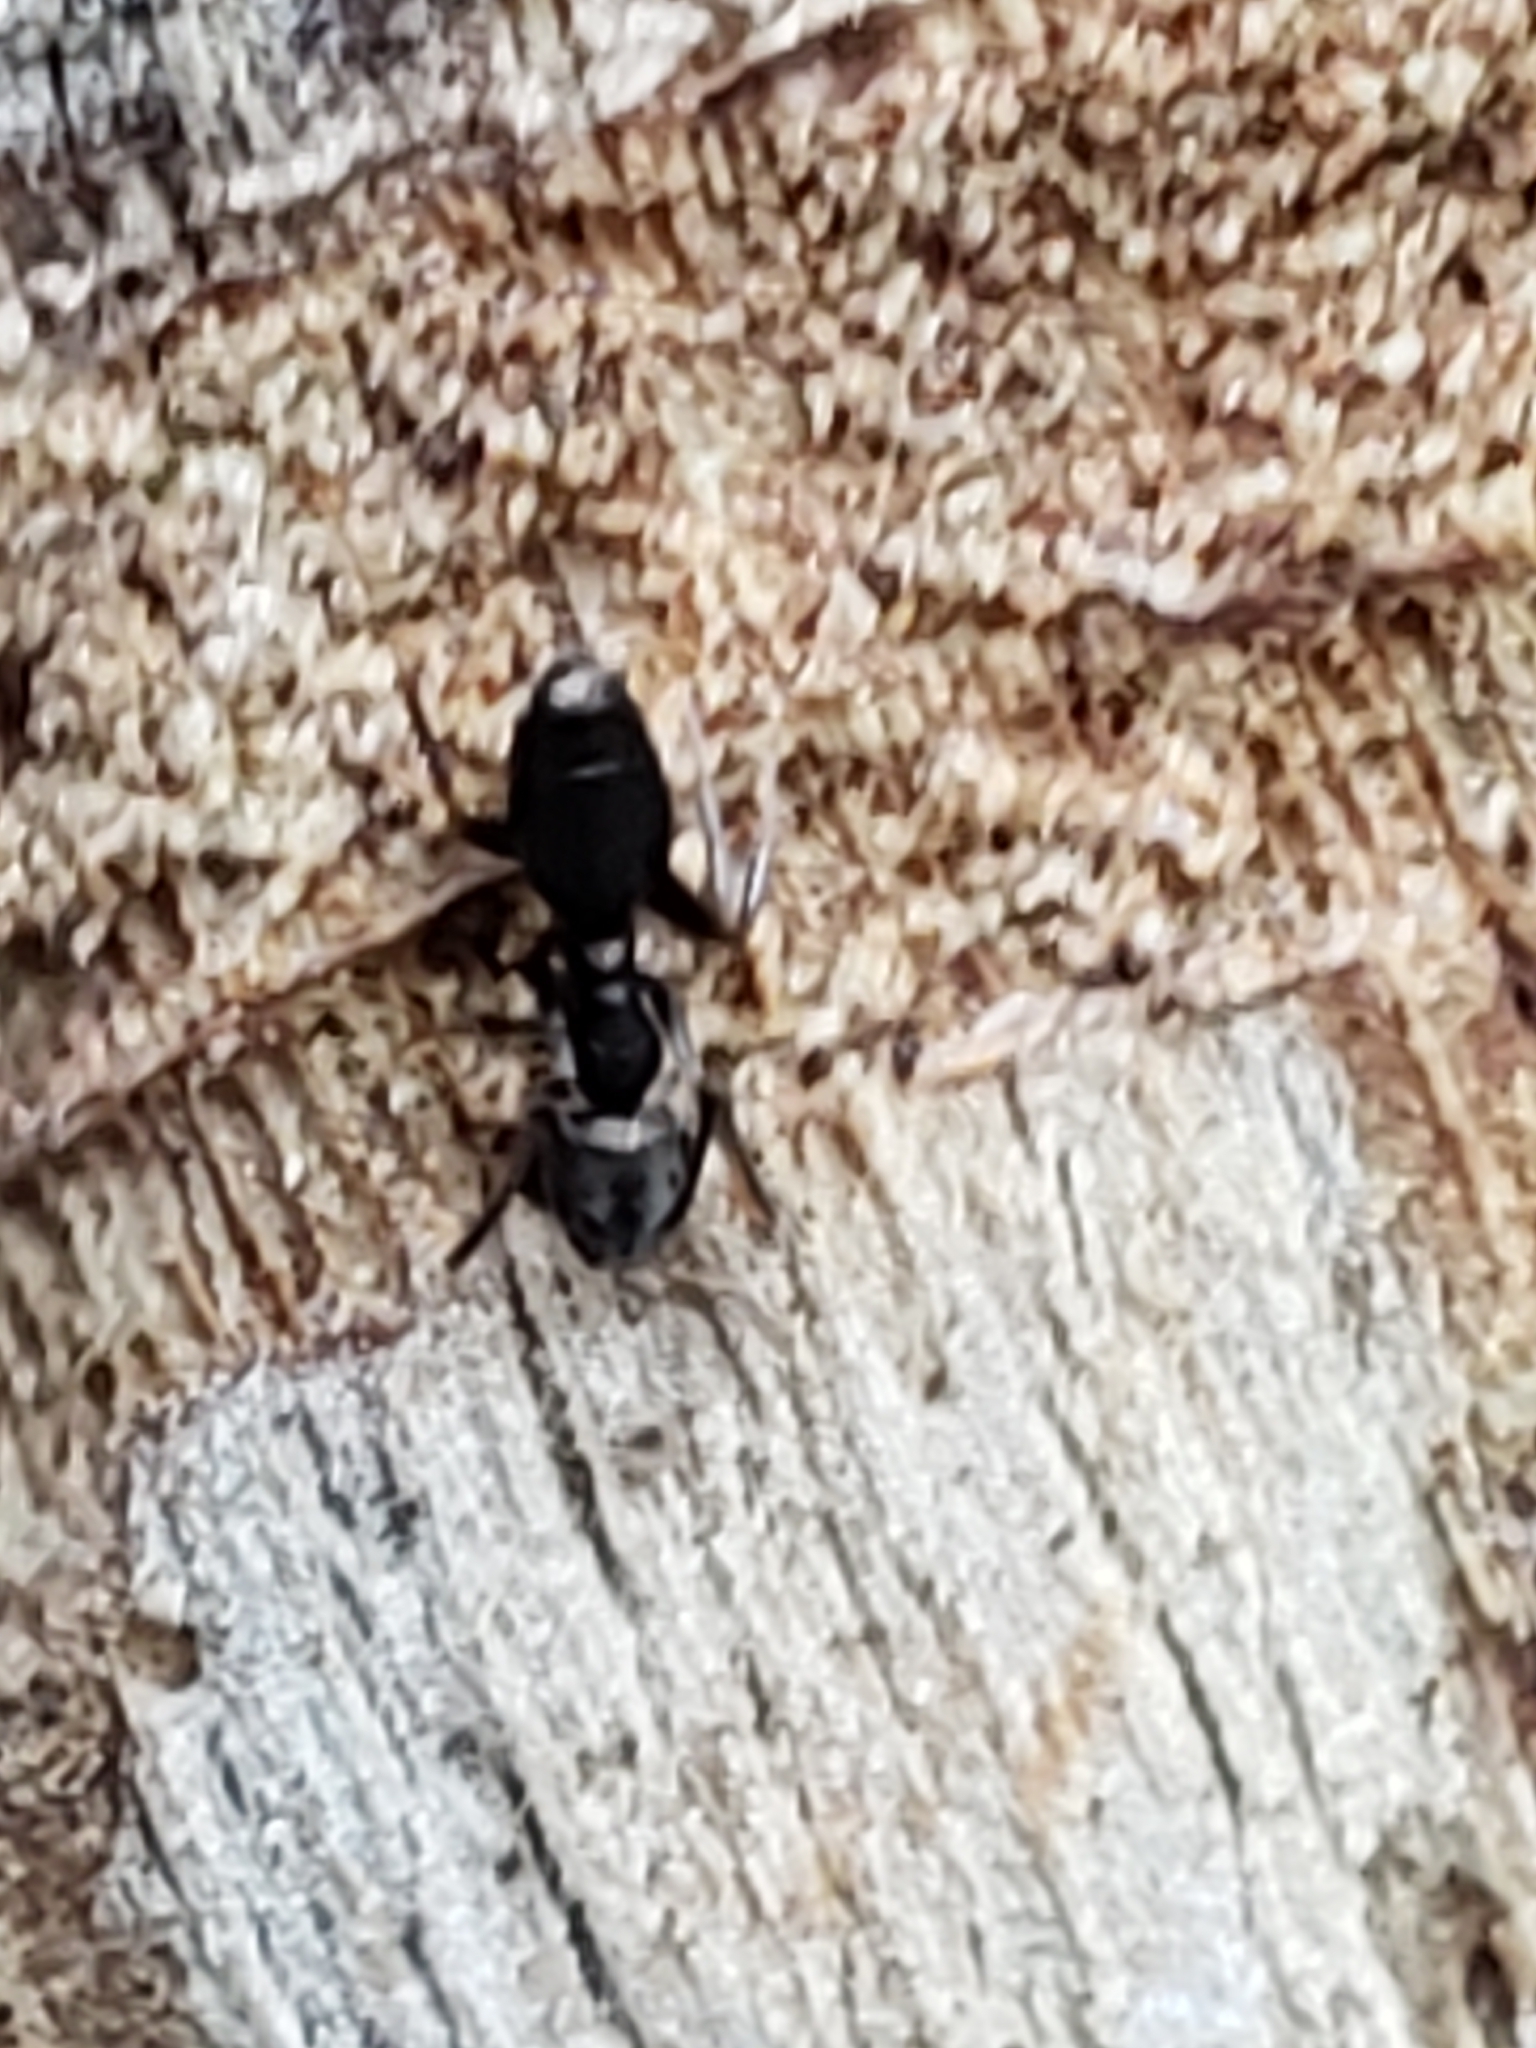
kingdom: Animalia
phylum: Arthropoda
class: Insecta
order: Hymenoptera
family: Formicidae
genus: Tapinoma
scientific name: Tapinoma sessile
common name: Odorous house ant
